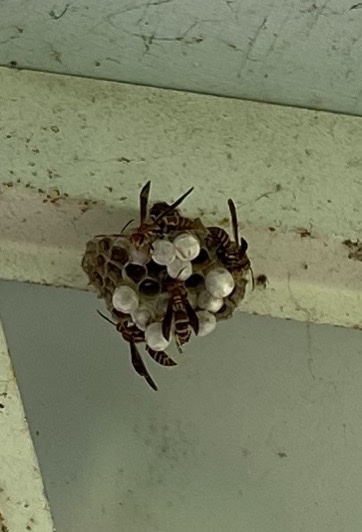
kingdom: Animalia
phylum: Arthropoda
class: Insecta
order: Hymenoptera
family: Eumenidae
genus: Polistes
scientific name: Polistes exclamans
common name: Paper wasp
